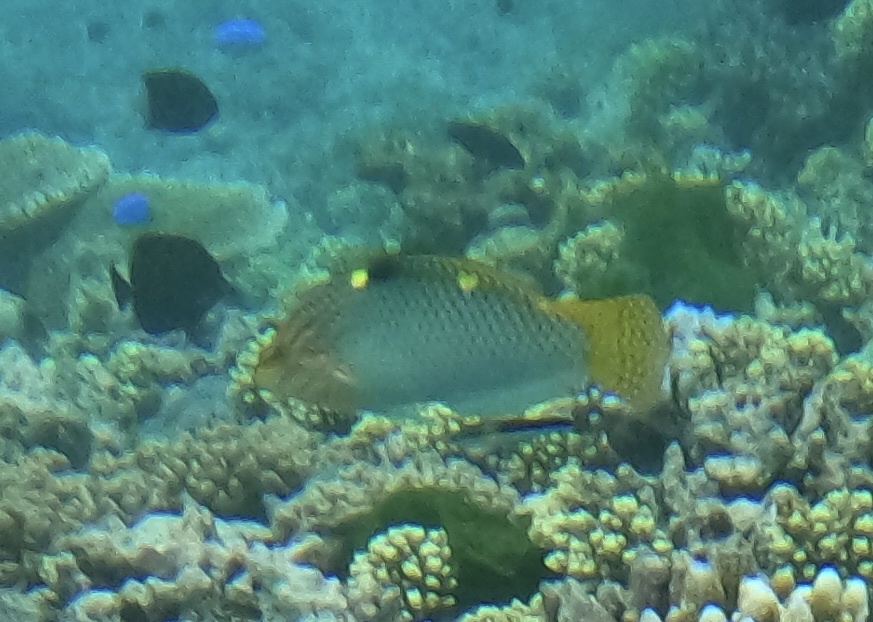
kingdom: Animalia
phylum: Chordata
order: Perciformes
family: Labridae
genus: Halichoeres
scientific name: Halichoeres hortulanus
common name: Checkerboard wrasse
